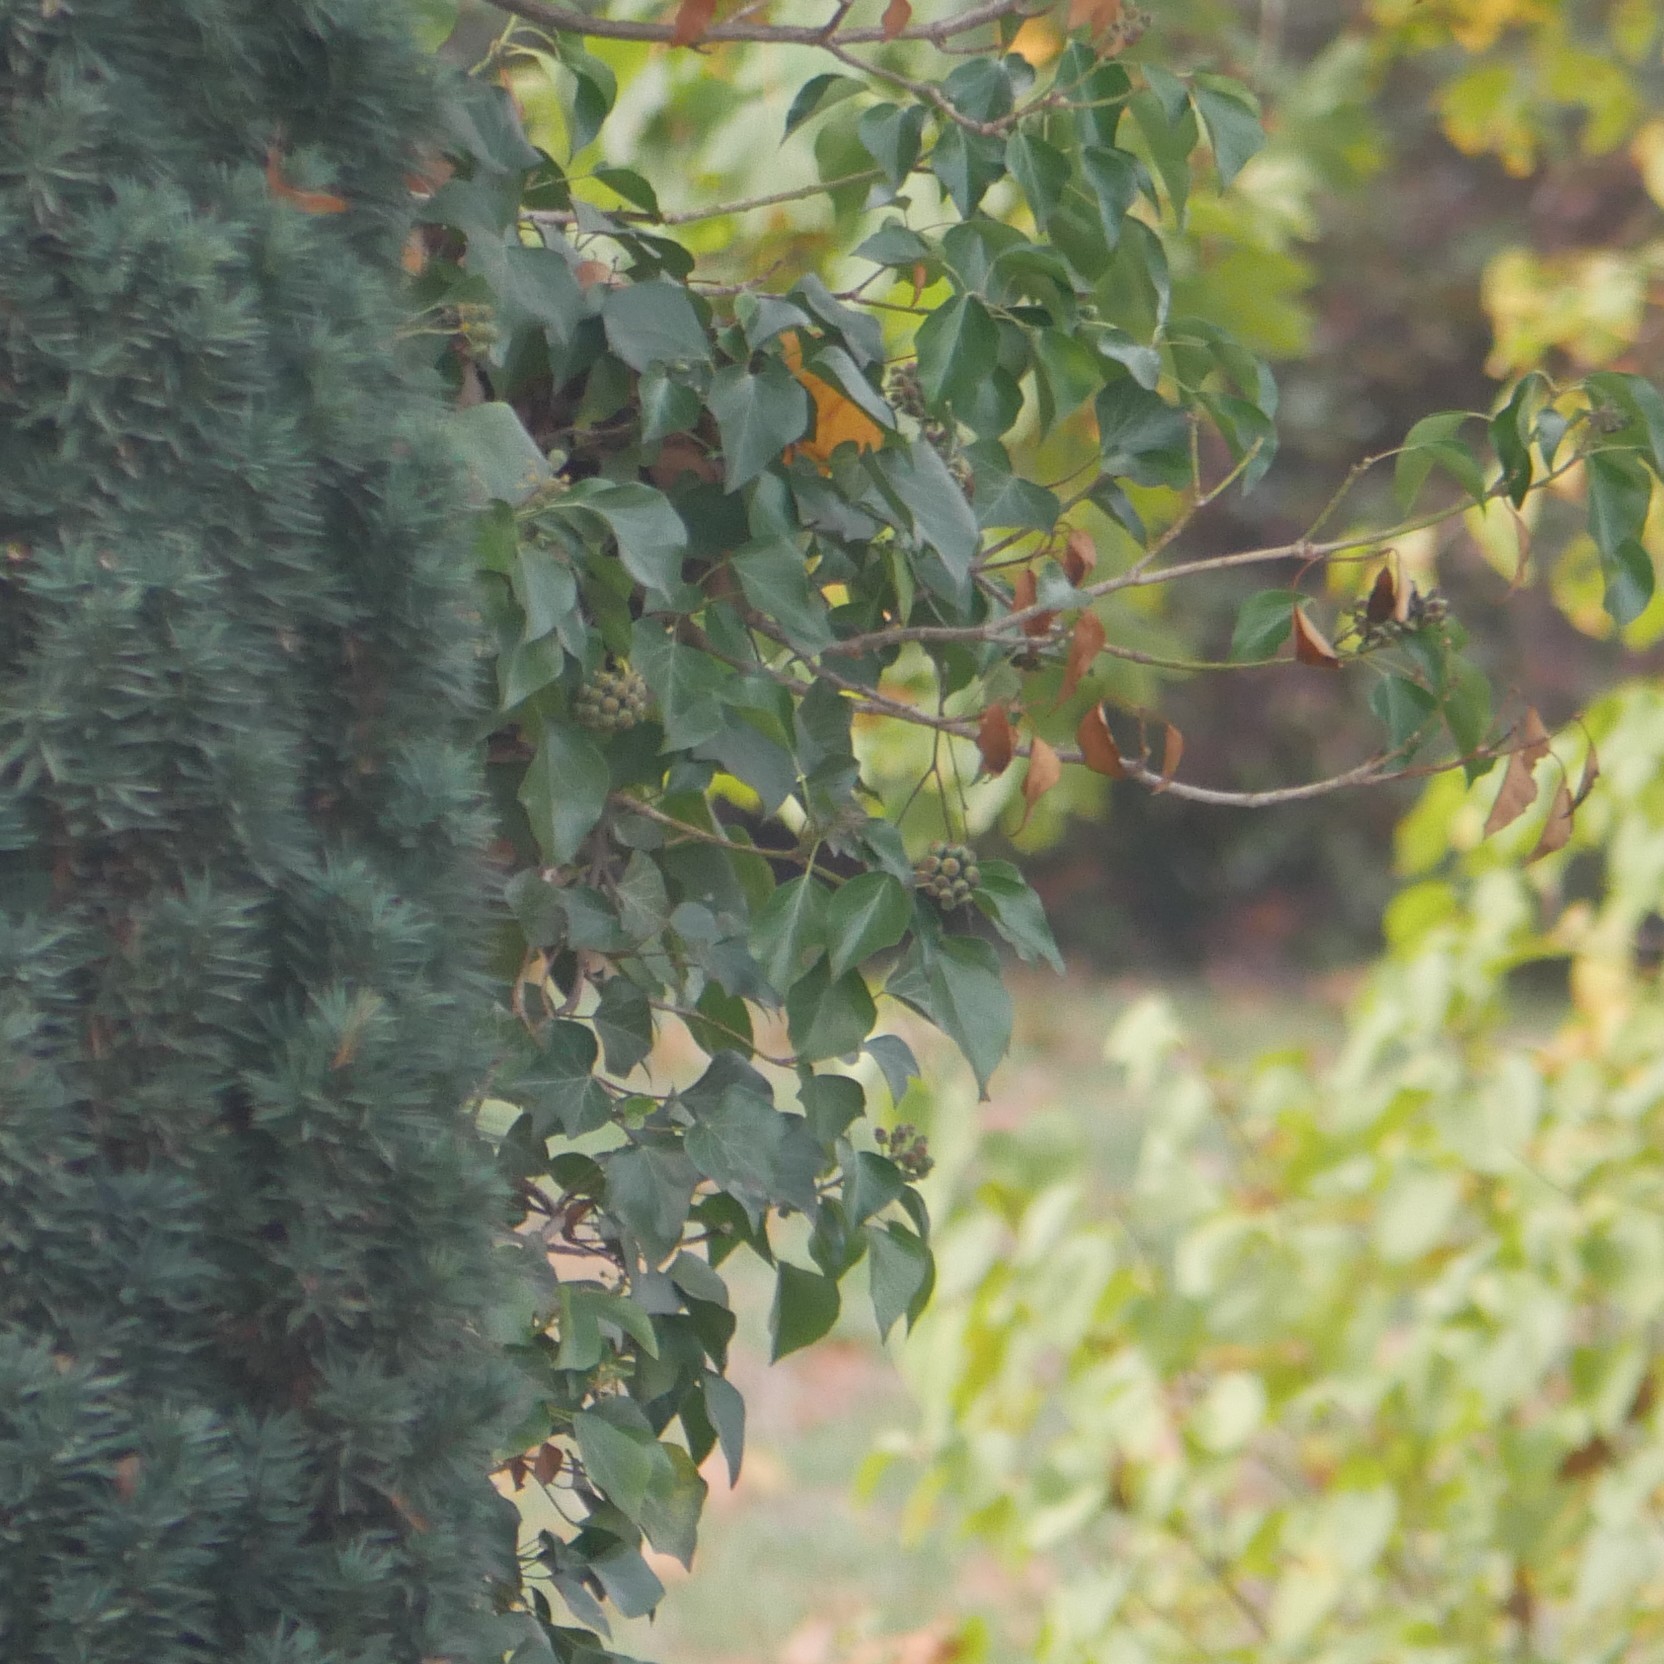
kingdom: Plantae
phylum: Tracheophyta
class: Magnoliopsida
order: Apiales
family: Araliaceae
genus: Hedera
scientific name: Hedera helix
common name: Ivy
